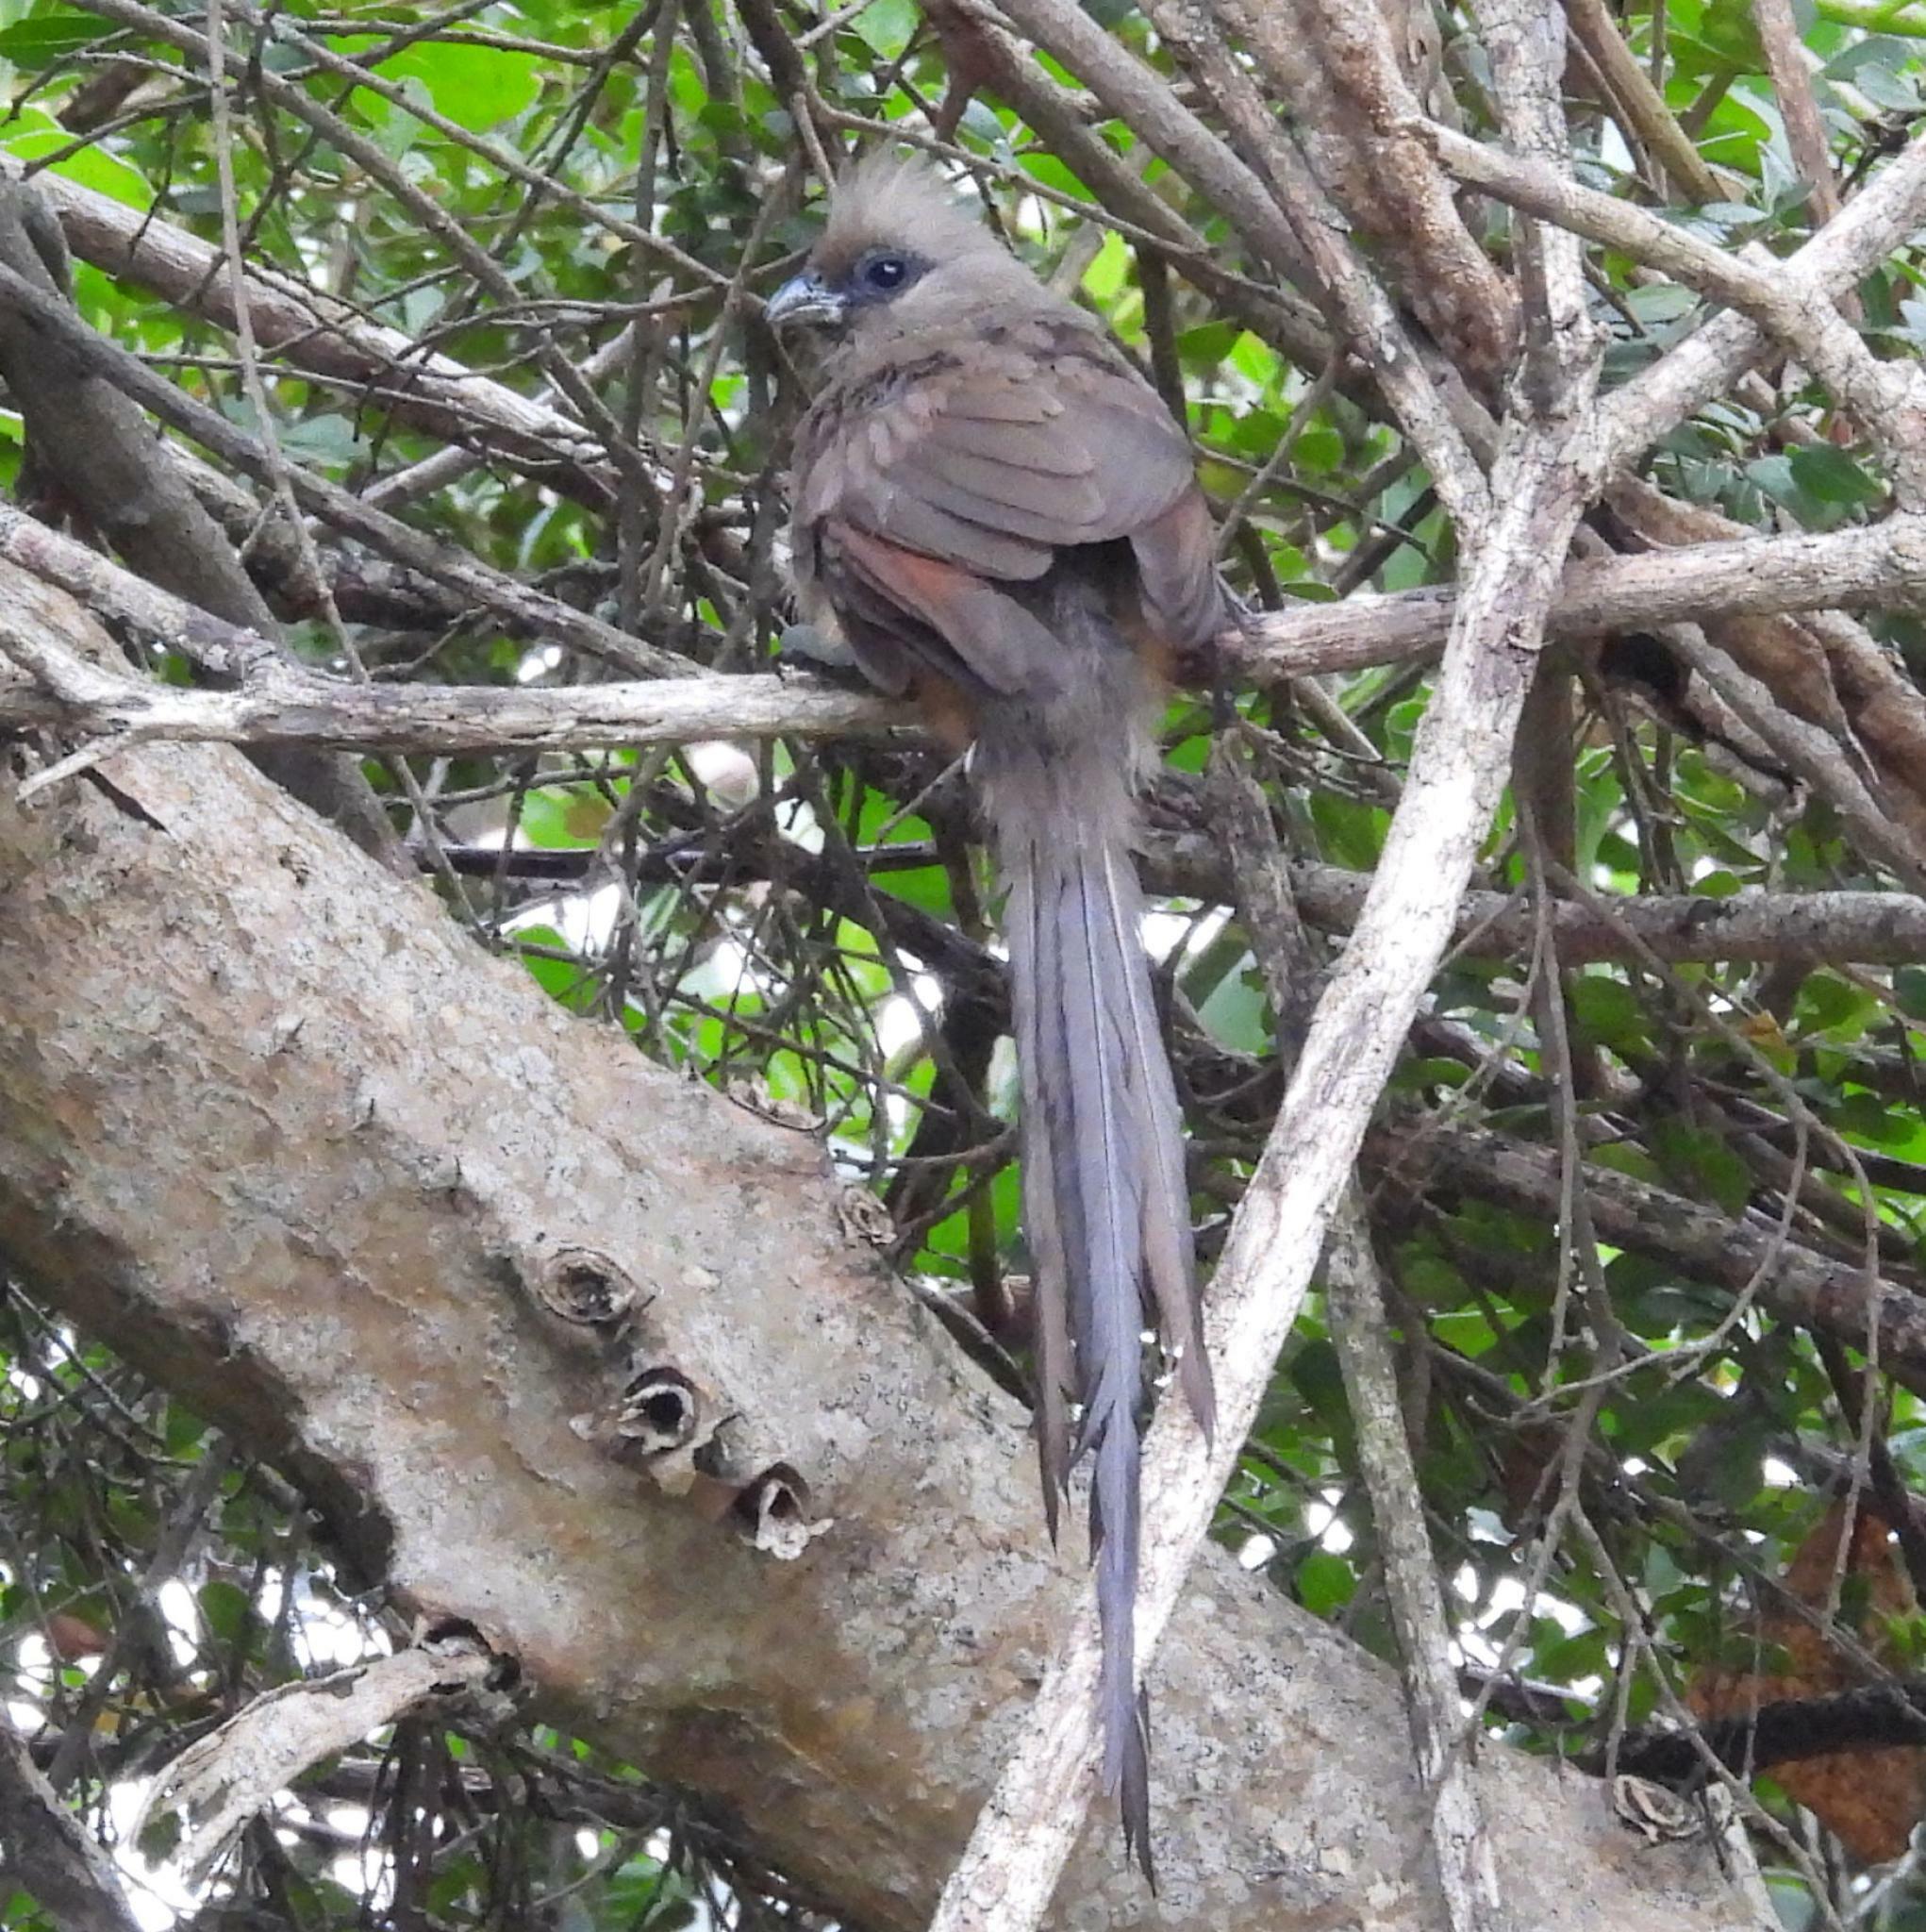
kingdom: Animalia
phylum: Chordata
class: Aves
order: Coliiformes
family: Coliidae
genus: Colius
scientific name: Colius striatus
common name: Speckled mousebird
